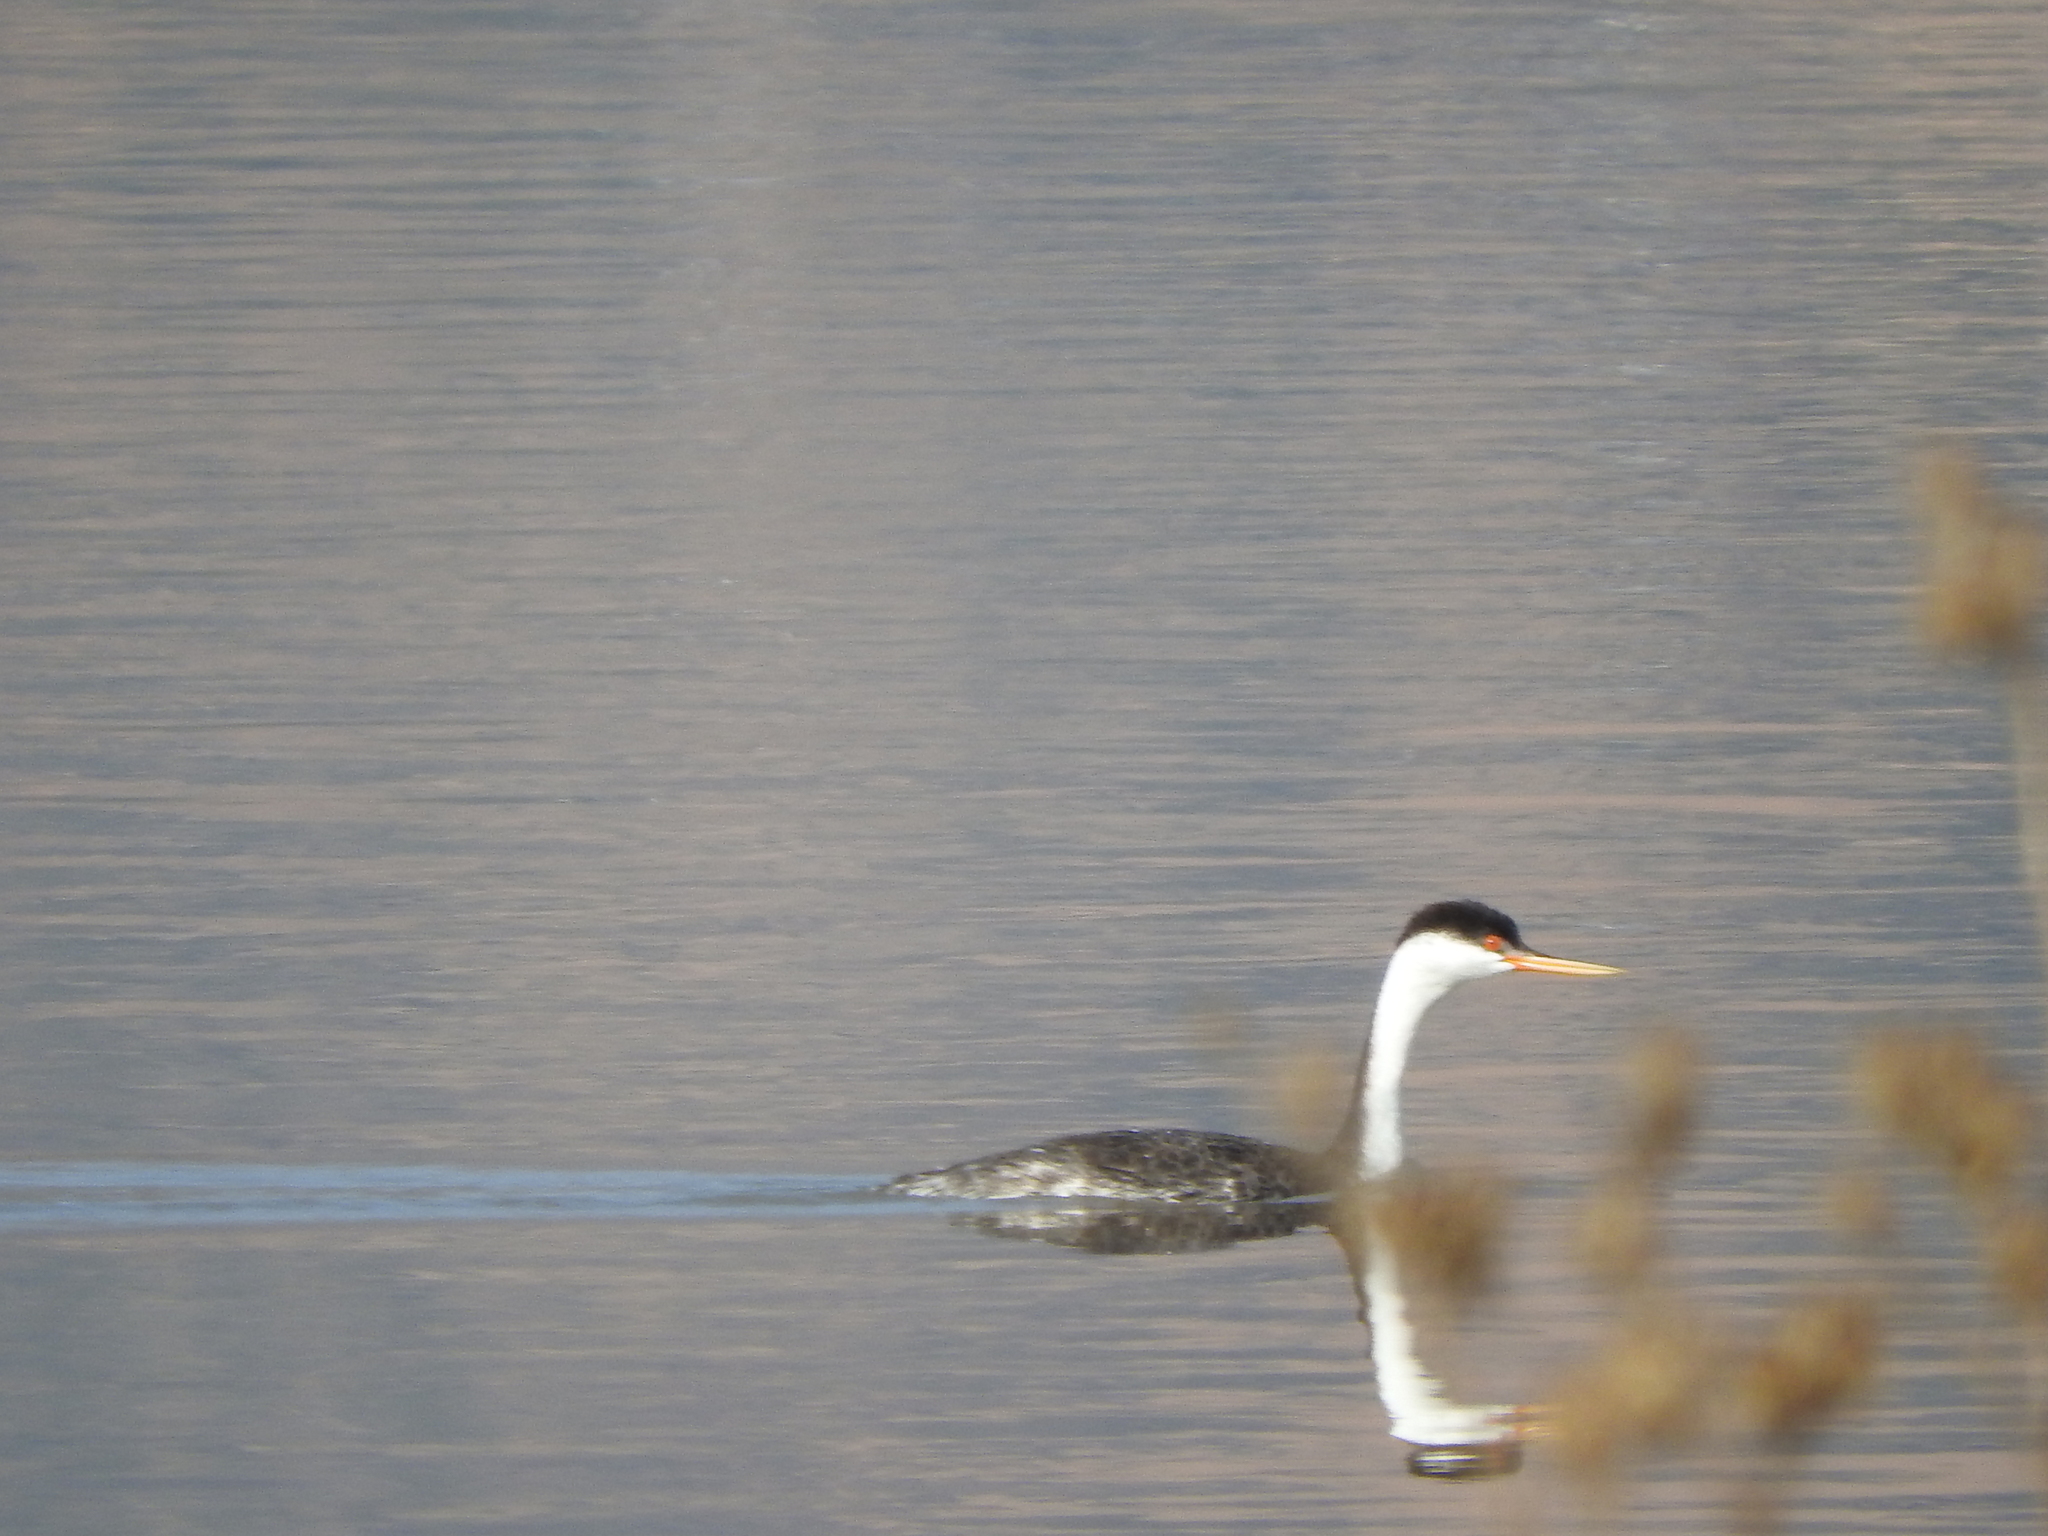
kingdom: Animalia
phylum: Chordata
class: Aves
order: Podicipediformes
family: Podicipedidae
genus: Aechmophorus
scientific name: Aechmophorus clarkii
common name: Clark's grebe
